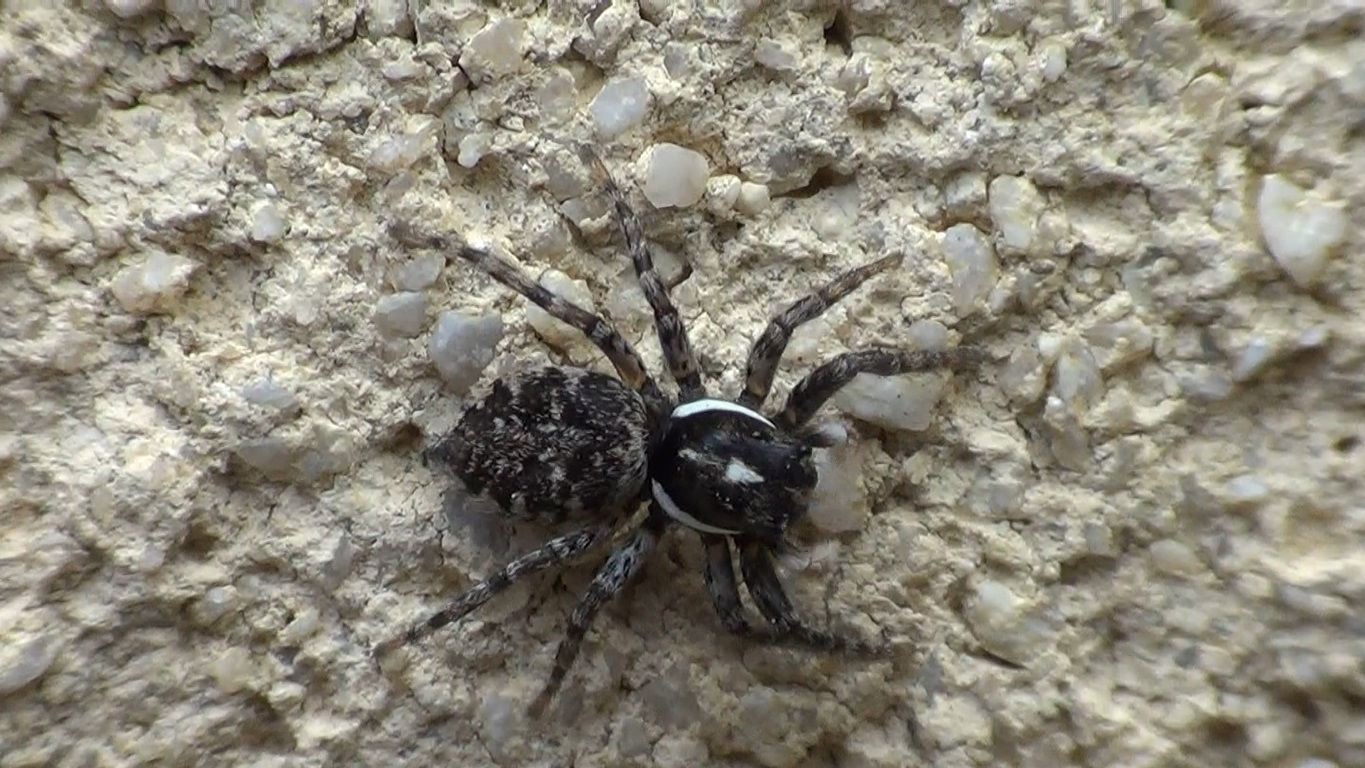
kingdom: Animalia
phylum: Arthropoda
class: Arachnida
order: Araneae
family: Salticidae
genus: Menemerus
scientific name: Menemerus semilimbatus
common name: Jumping spider
